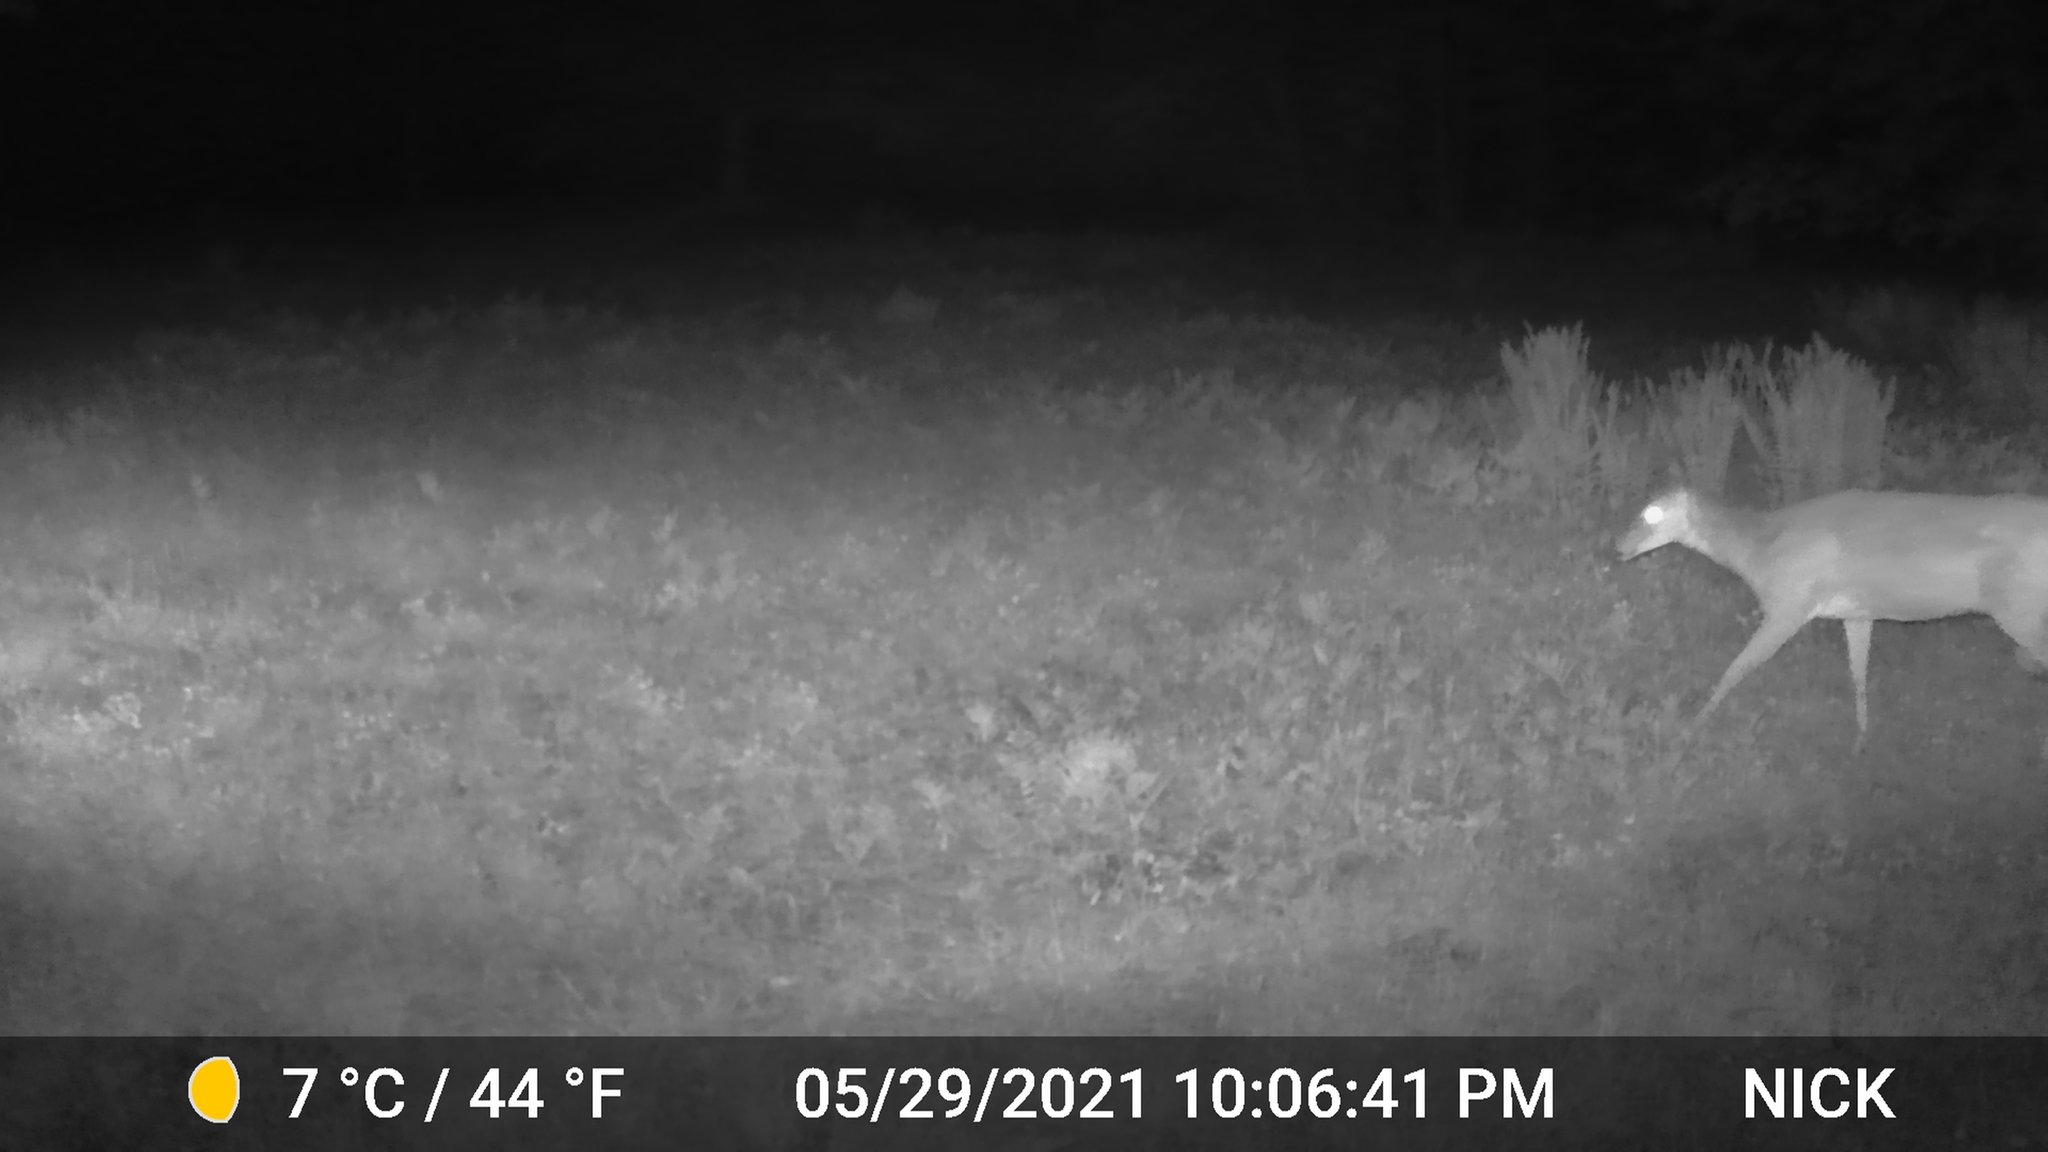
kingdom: Animalia
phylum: Chordata
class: Mammalia
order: Artiodactyla
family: Cervidae
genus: Odocoileus
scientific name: Odocoileus virginianus
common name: White-tailed deer
